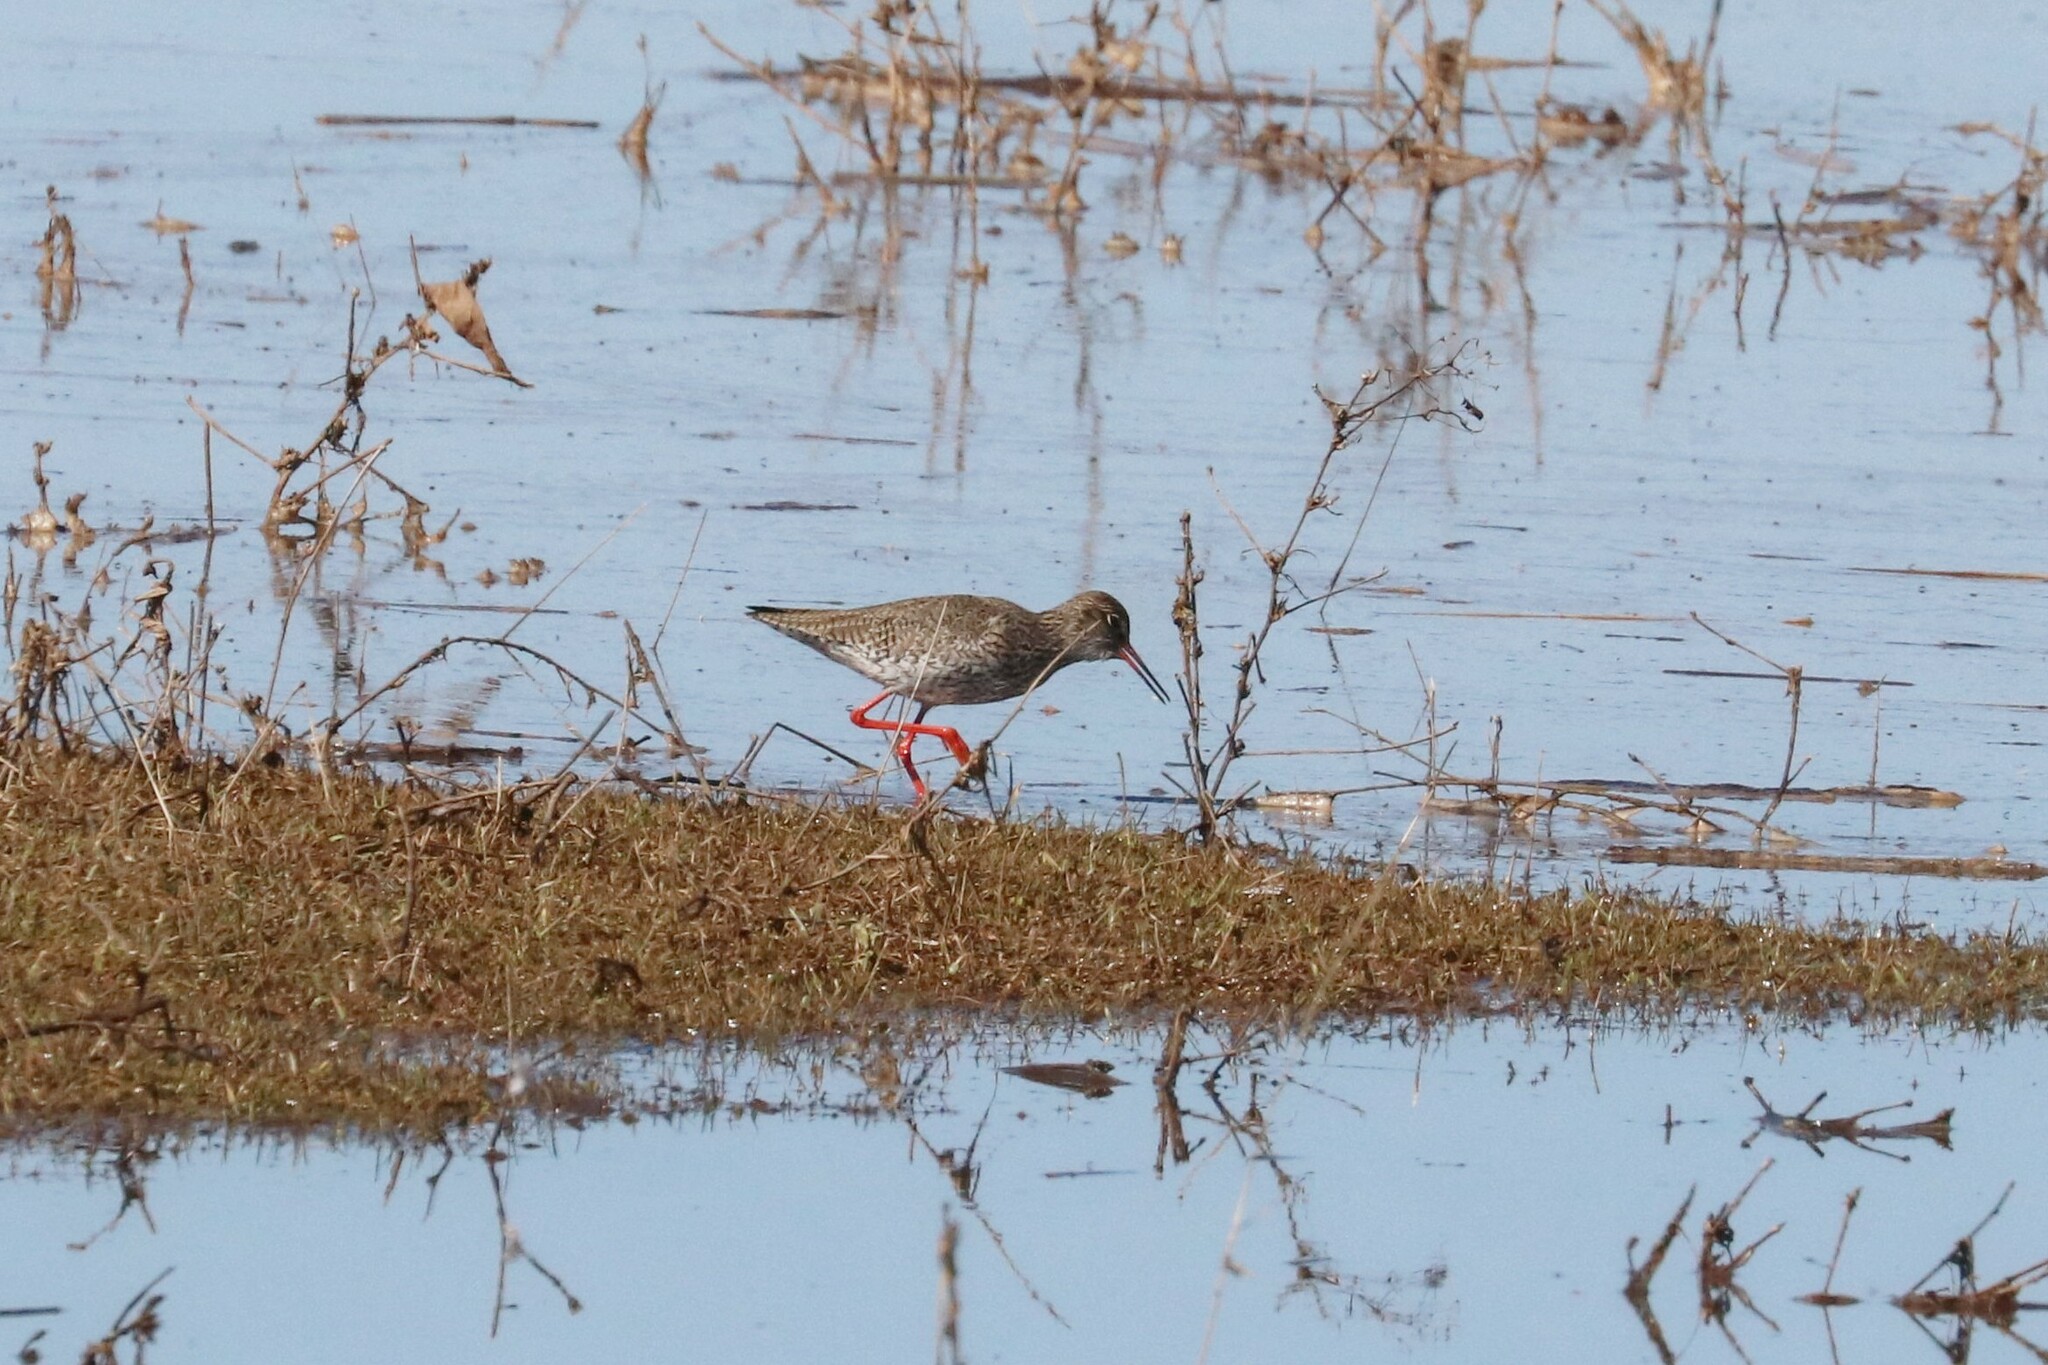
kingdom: Animalia
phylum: Chordata
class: Aves
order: Charadriiformes
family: Scolopacidae
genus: Tringa
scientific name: Tringa totanus
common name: Common redshank
